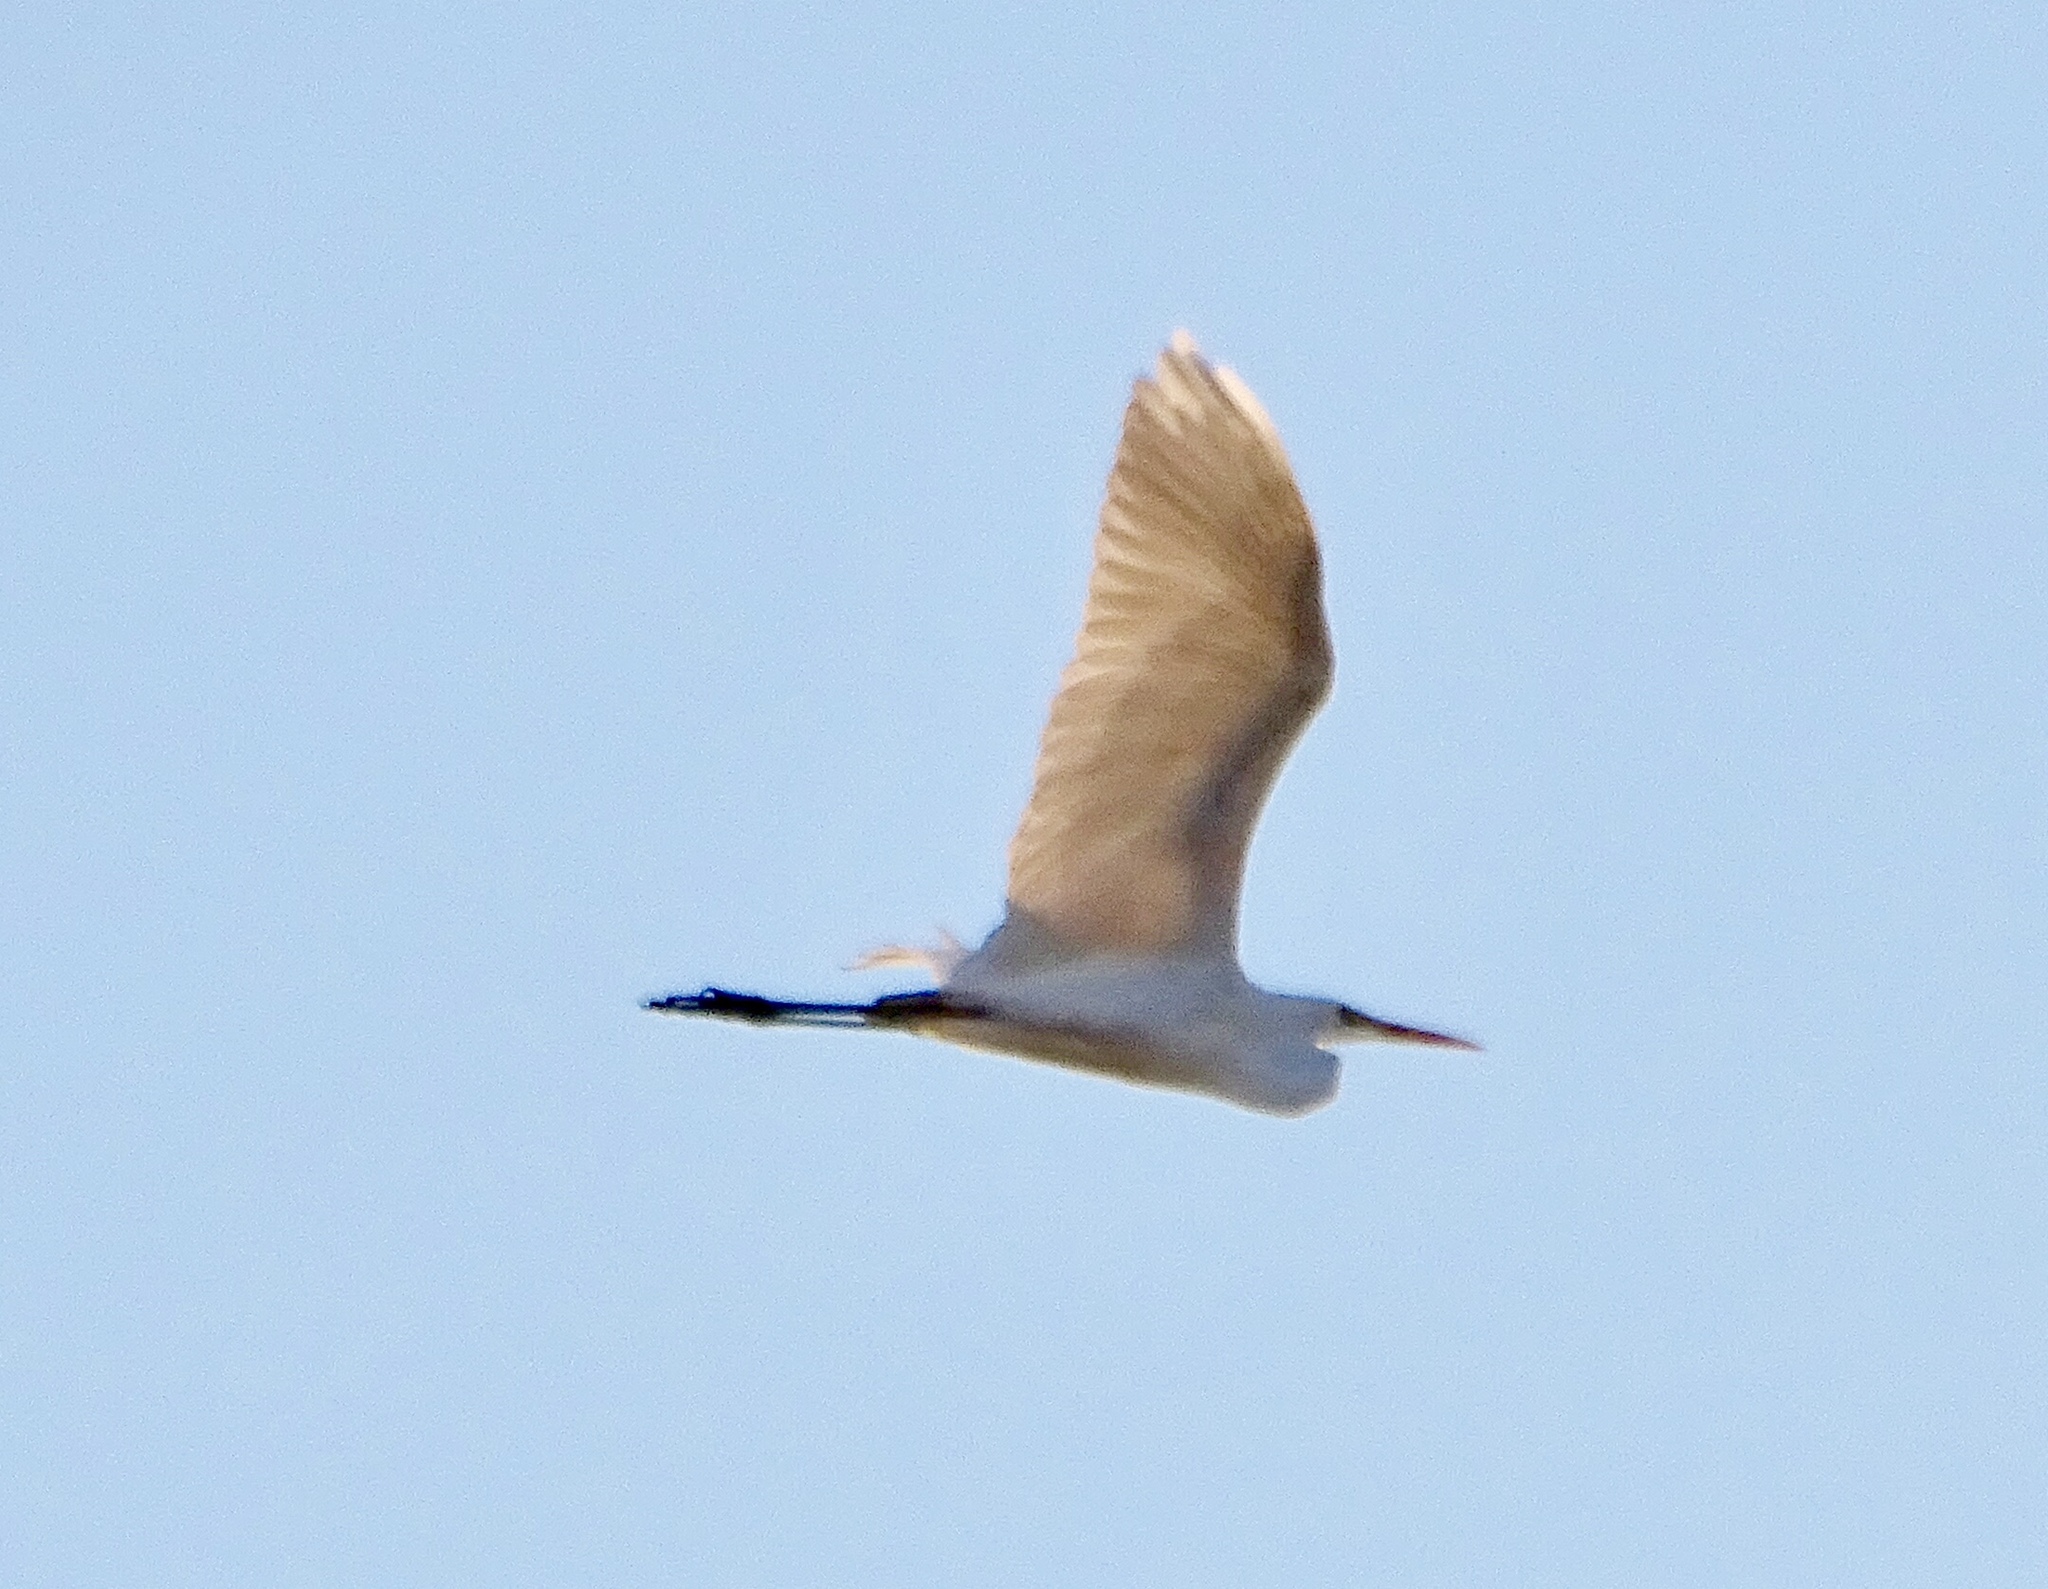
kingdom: Animalia
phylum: Chordata
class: Aves
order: Pelecaniformes
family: Ardeidae
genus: Ardea
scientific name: Ardea alba
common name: Great egret
